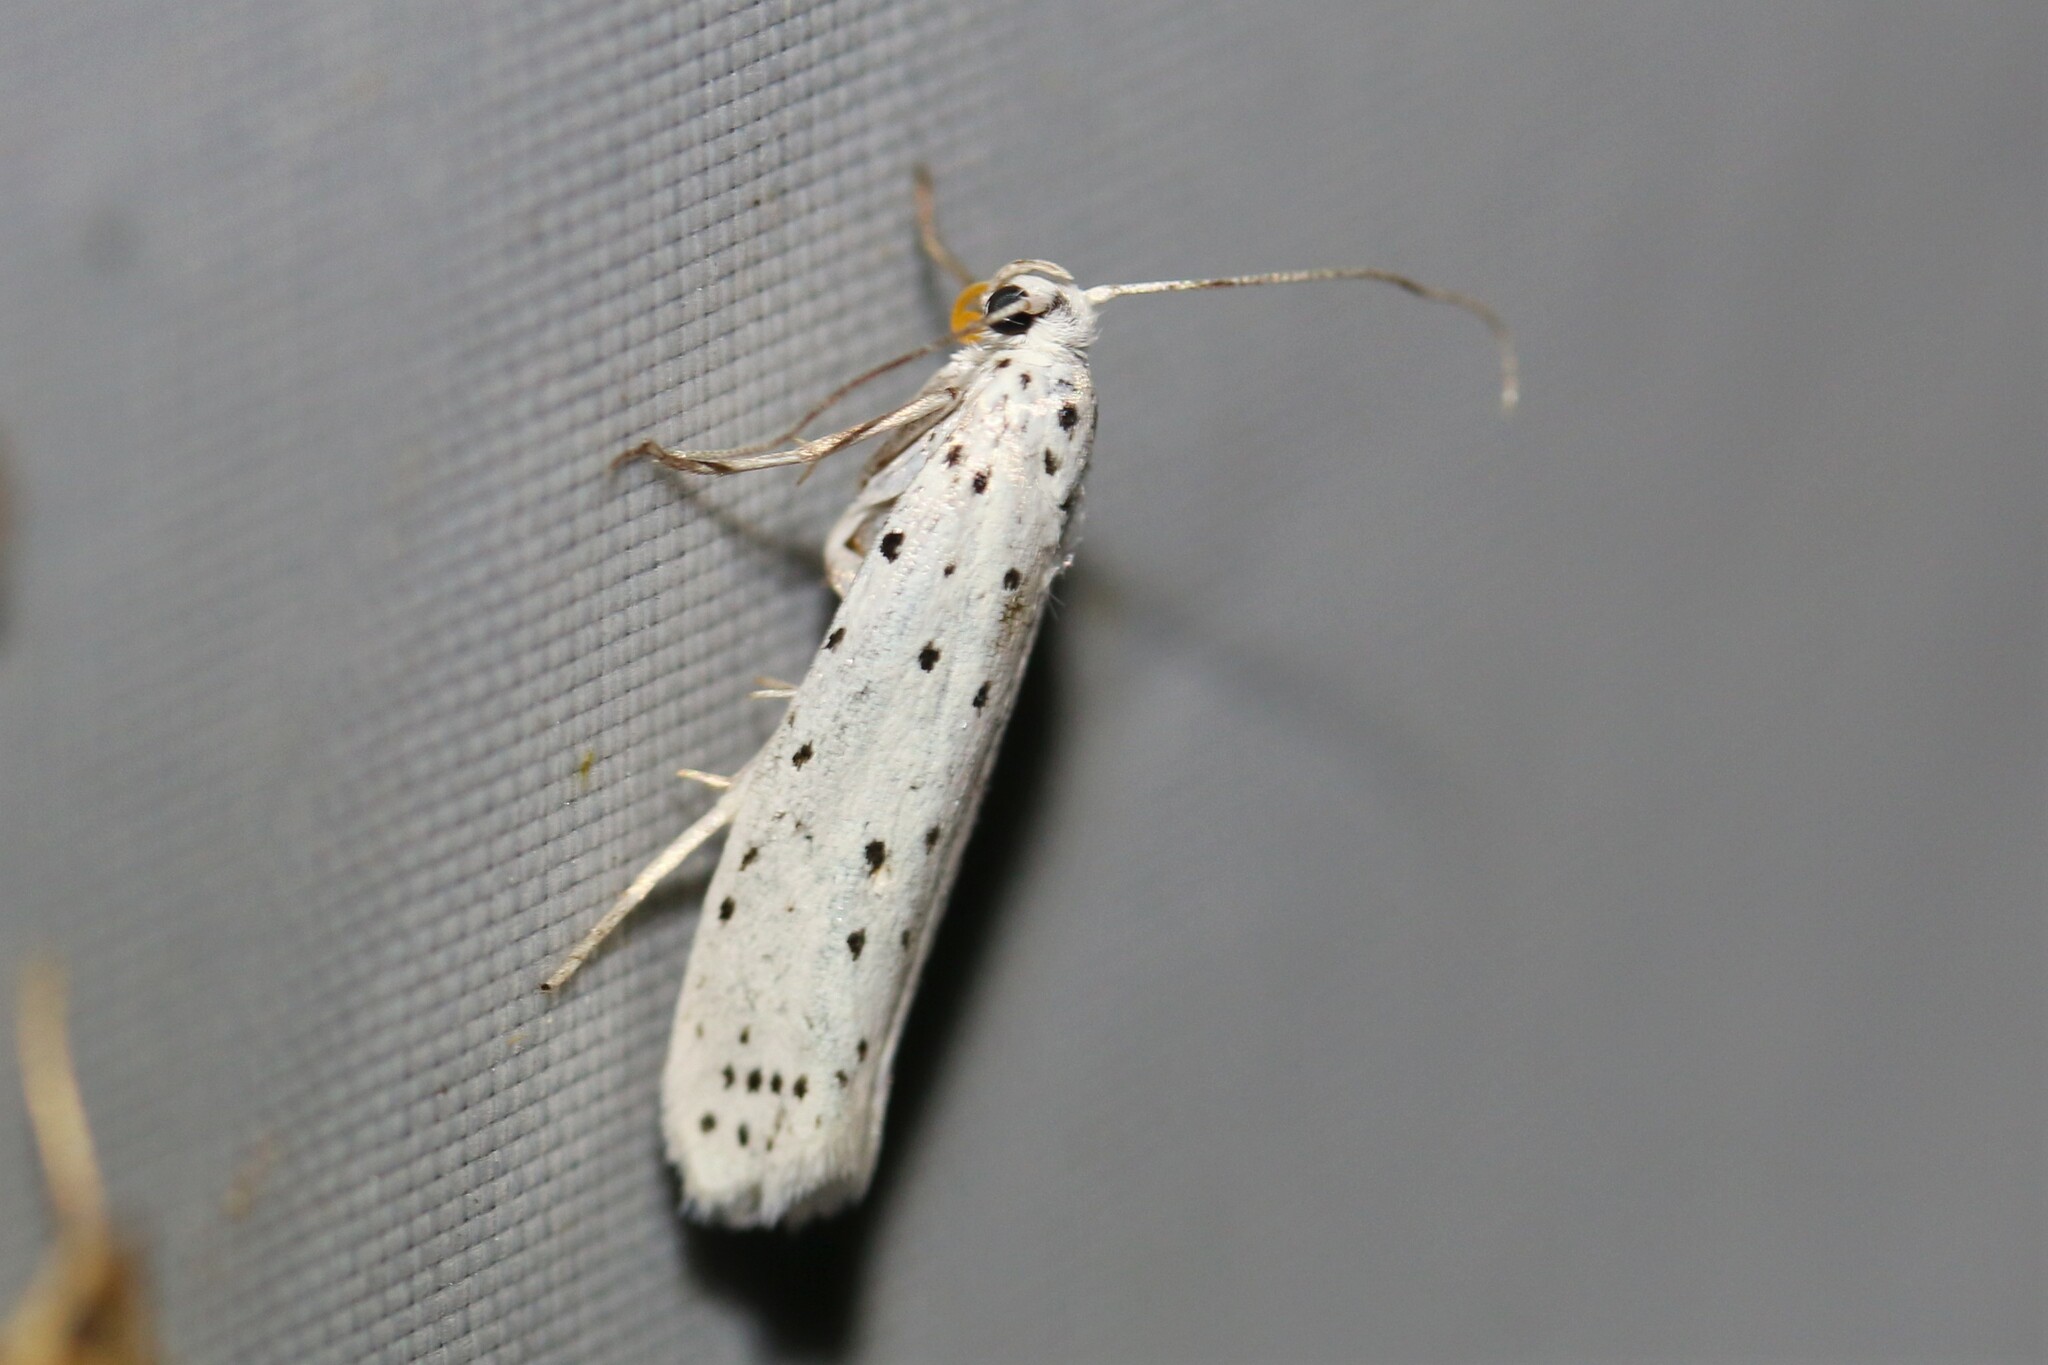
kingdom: Animalia
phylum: Arthropoda
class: Insecta
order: Lepidoptera
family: Yponomeutidae
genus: Yponomeuta
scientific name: Yponomeuta
